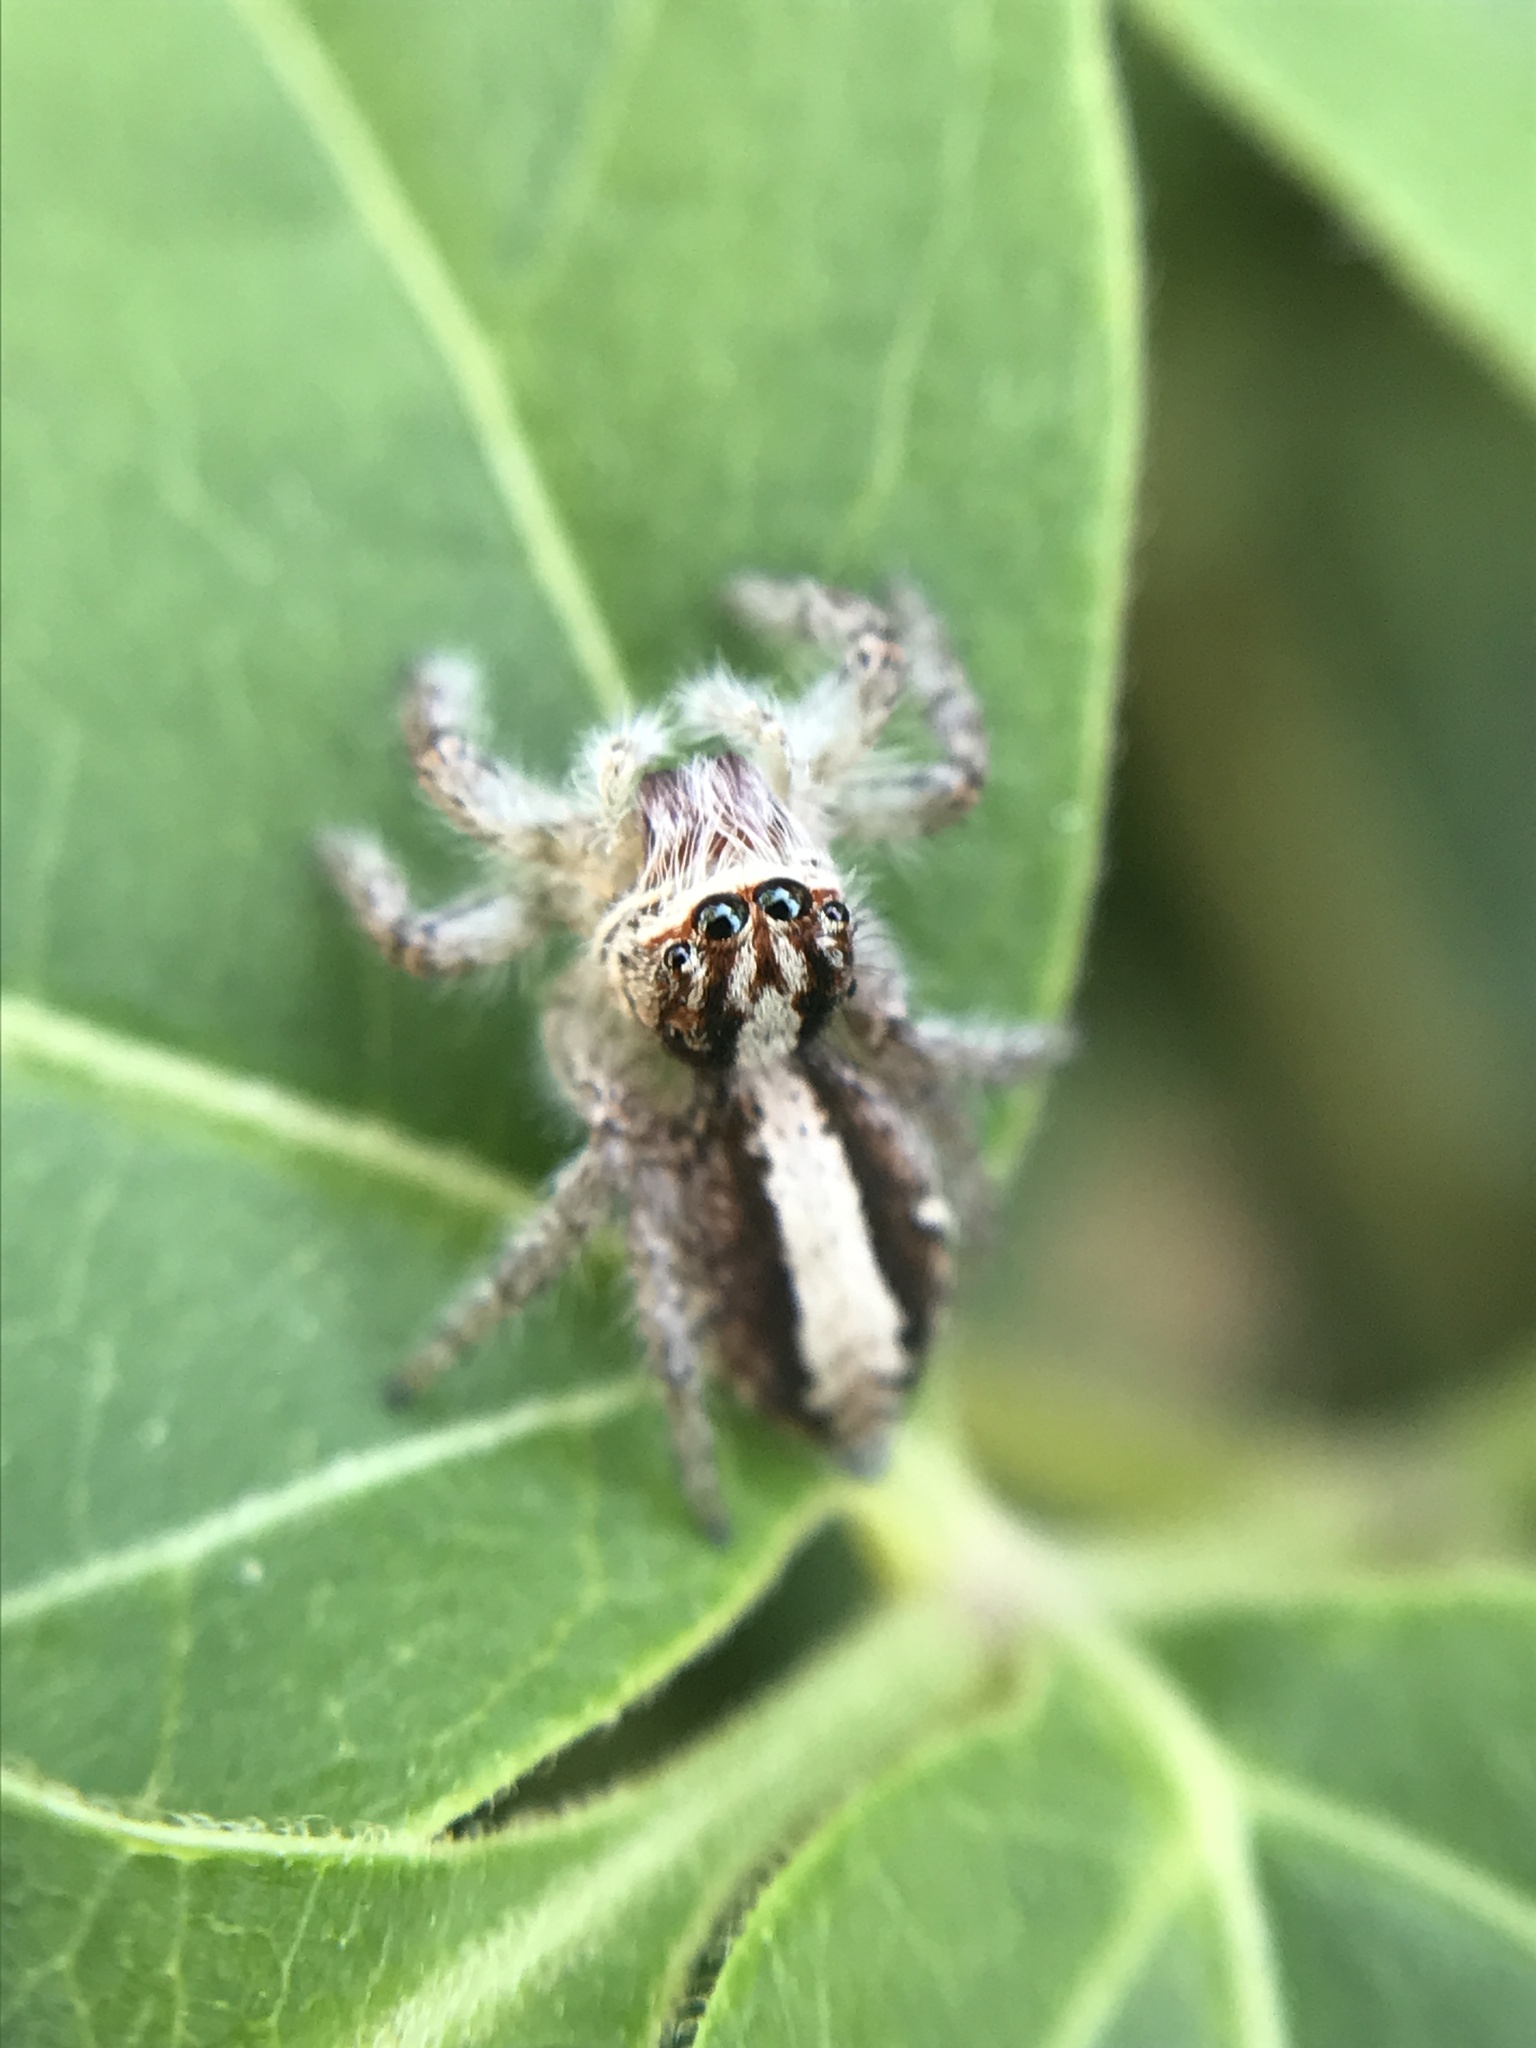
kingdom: Animalia
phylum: Arthropoda
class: Arachnida
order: Araneae
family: Salticidae
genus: Megafreya
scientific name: Megafreya sutrix
